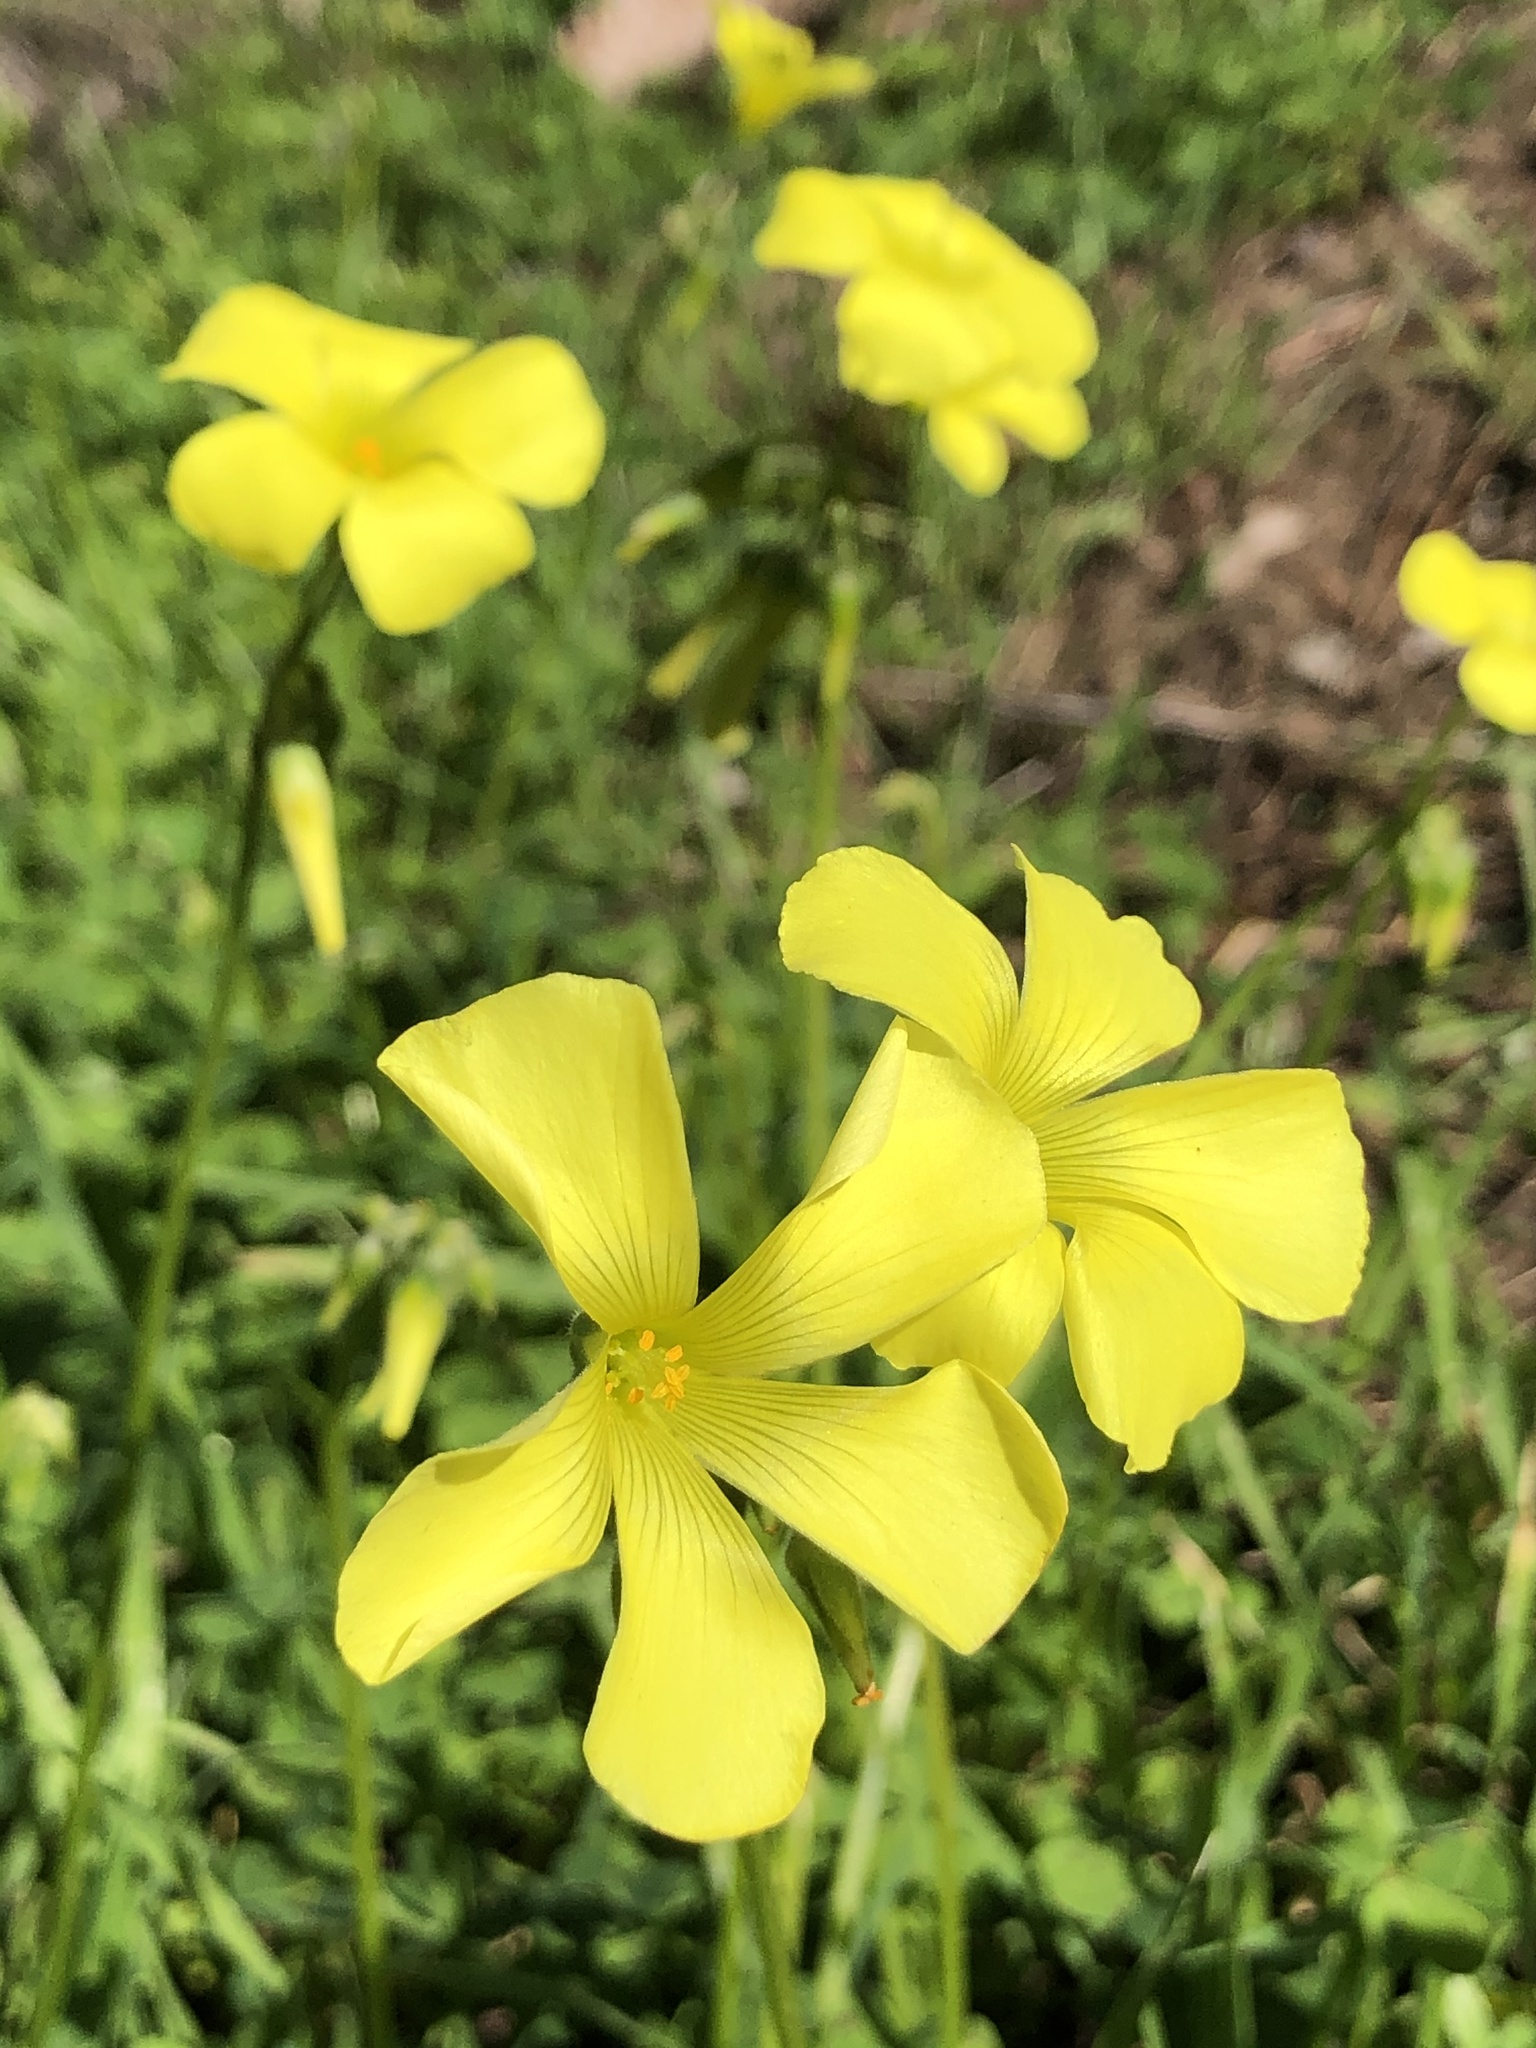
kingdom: Plantae
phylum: Tracheophyta
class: Magnoliopsida
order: Oxalidales
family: Oxalidaceae
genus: Oxalis
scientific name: Oxalis pes-caprae
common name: Bermuda-buttercup
